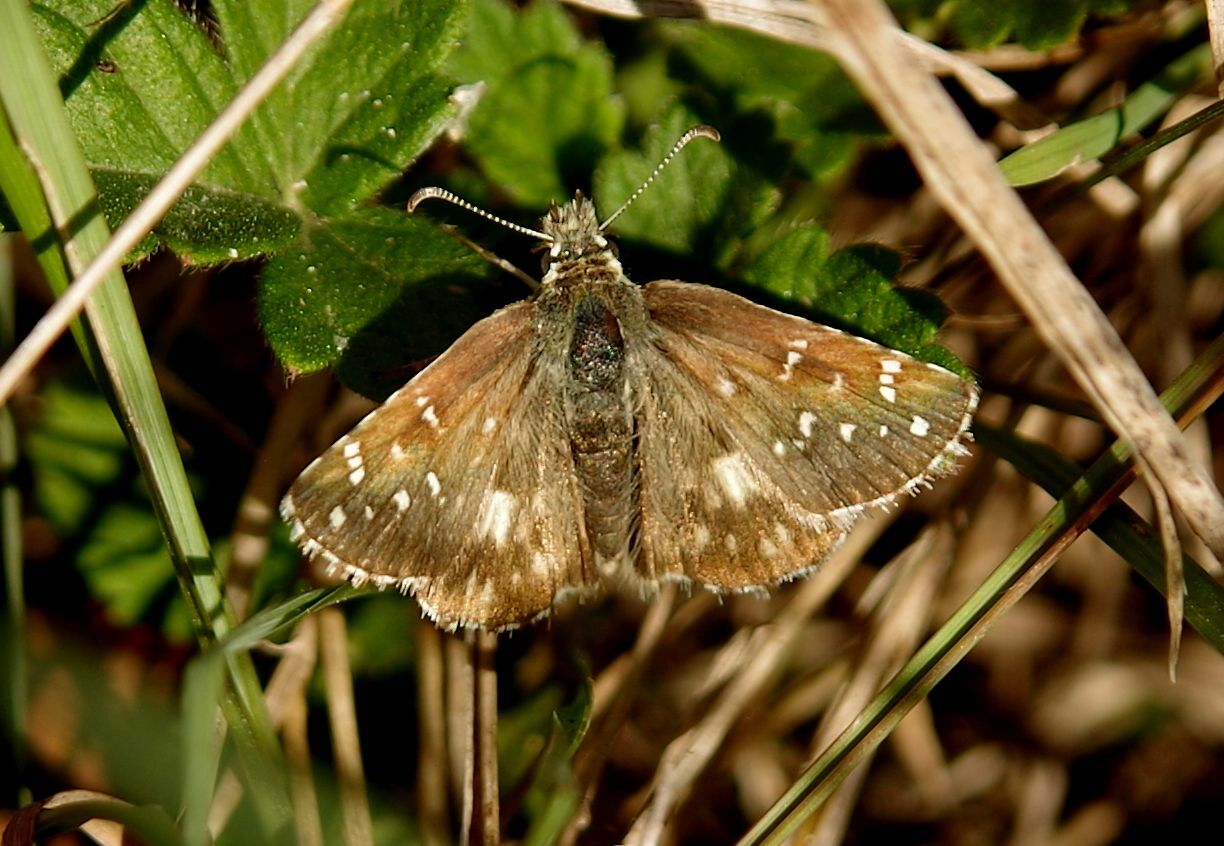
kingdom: Animalia
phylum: Arthropoda
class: Insecta
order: Lepidoptera
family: Hesperiidae
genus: Pyrgus
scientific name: Pyrgus armoricanus
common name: Oberthür's grizzled skipper
